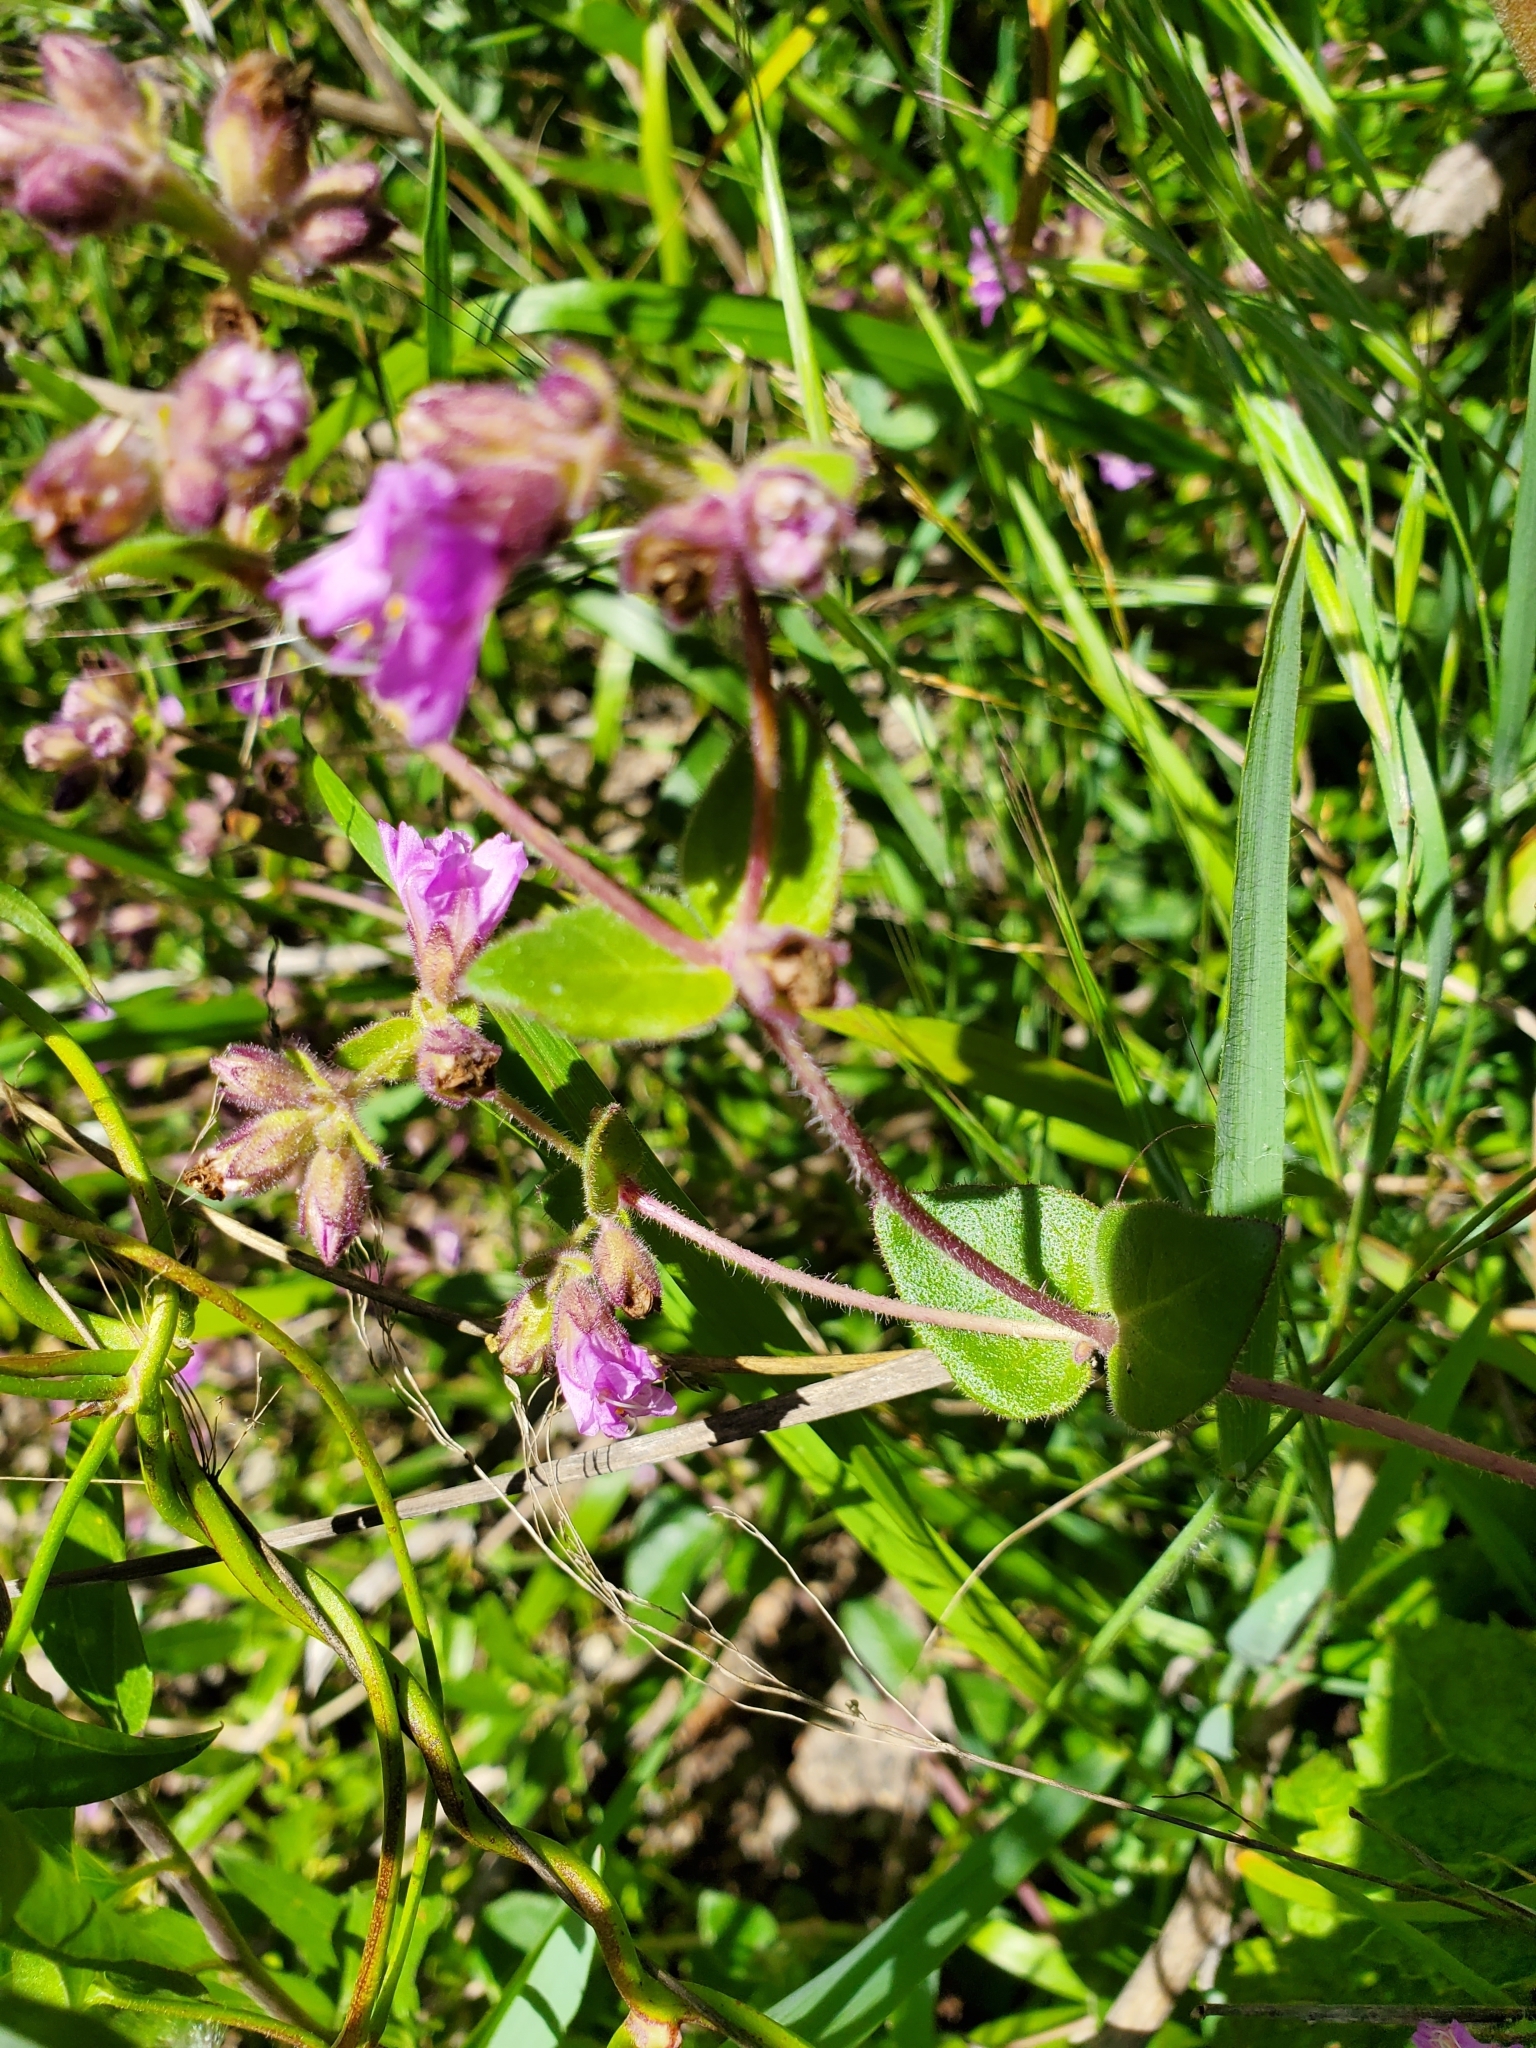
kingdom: Plantae
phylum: Tracheophyta
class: Magnoliopsida
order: Caryophyllales
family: Nyctaginaceae
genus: Mirabilis
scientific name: Mirabilis laevis
